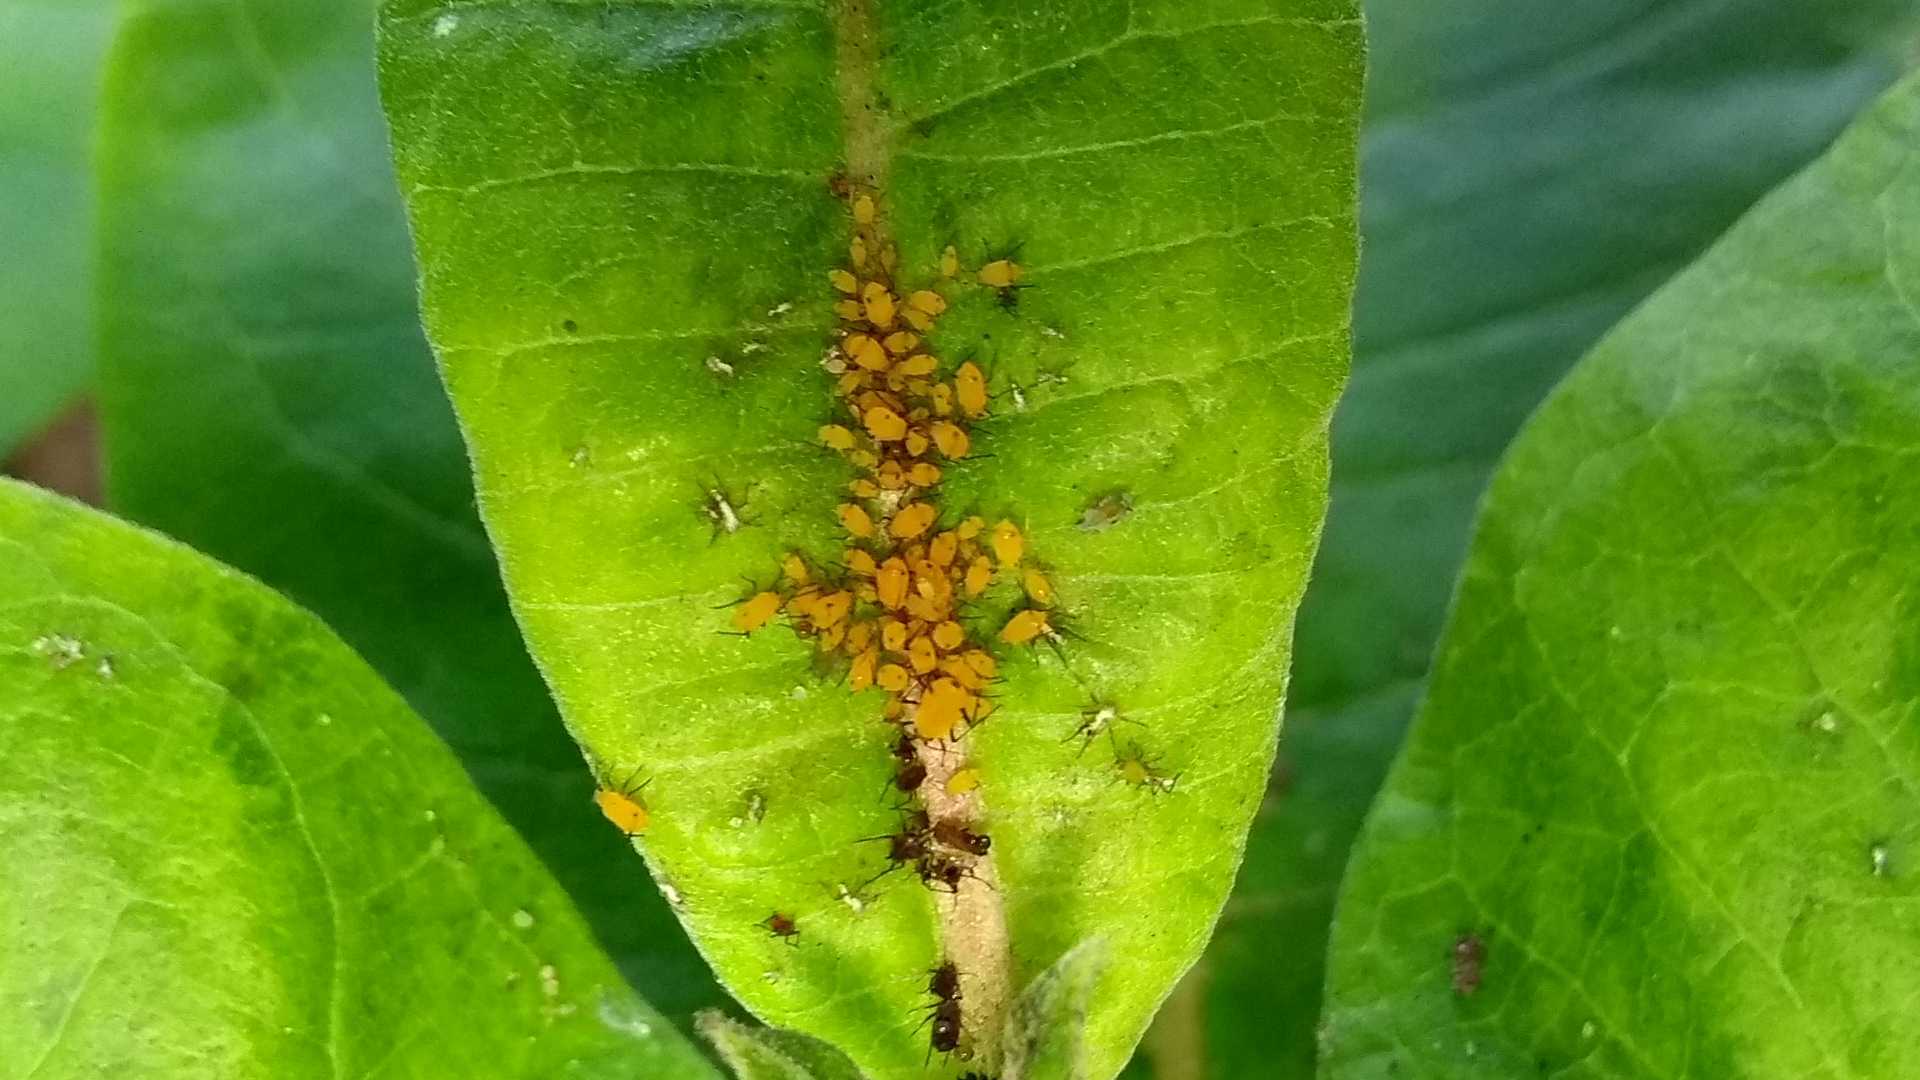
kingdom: Animalia
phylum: Arthropoda
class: Insecta
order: Hemiptera
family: Aphididae
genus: Aphis
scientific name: Aphis nerii
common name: Oleander aphid
